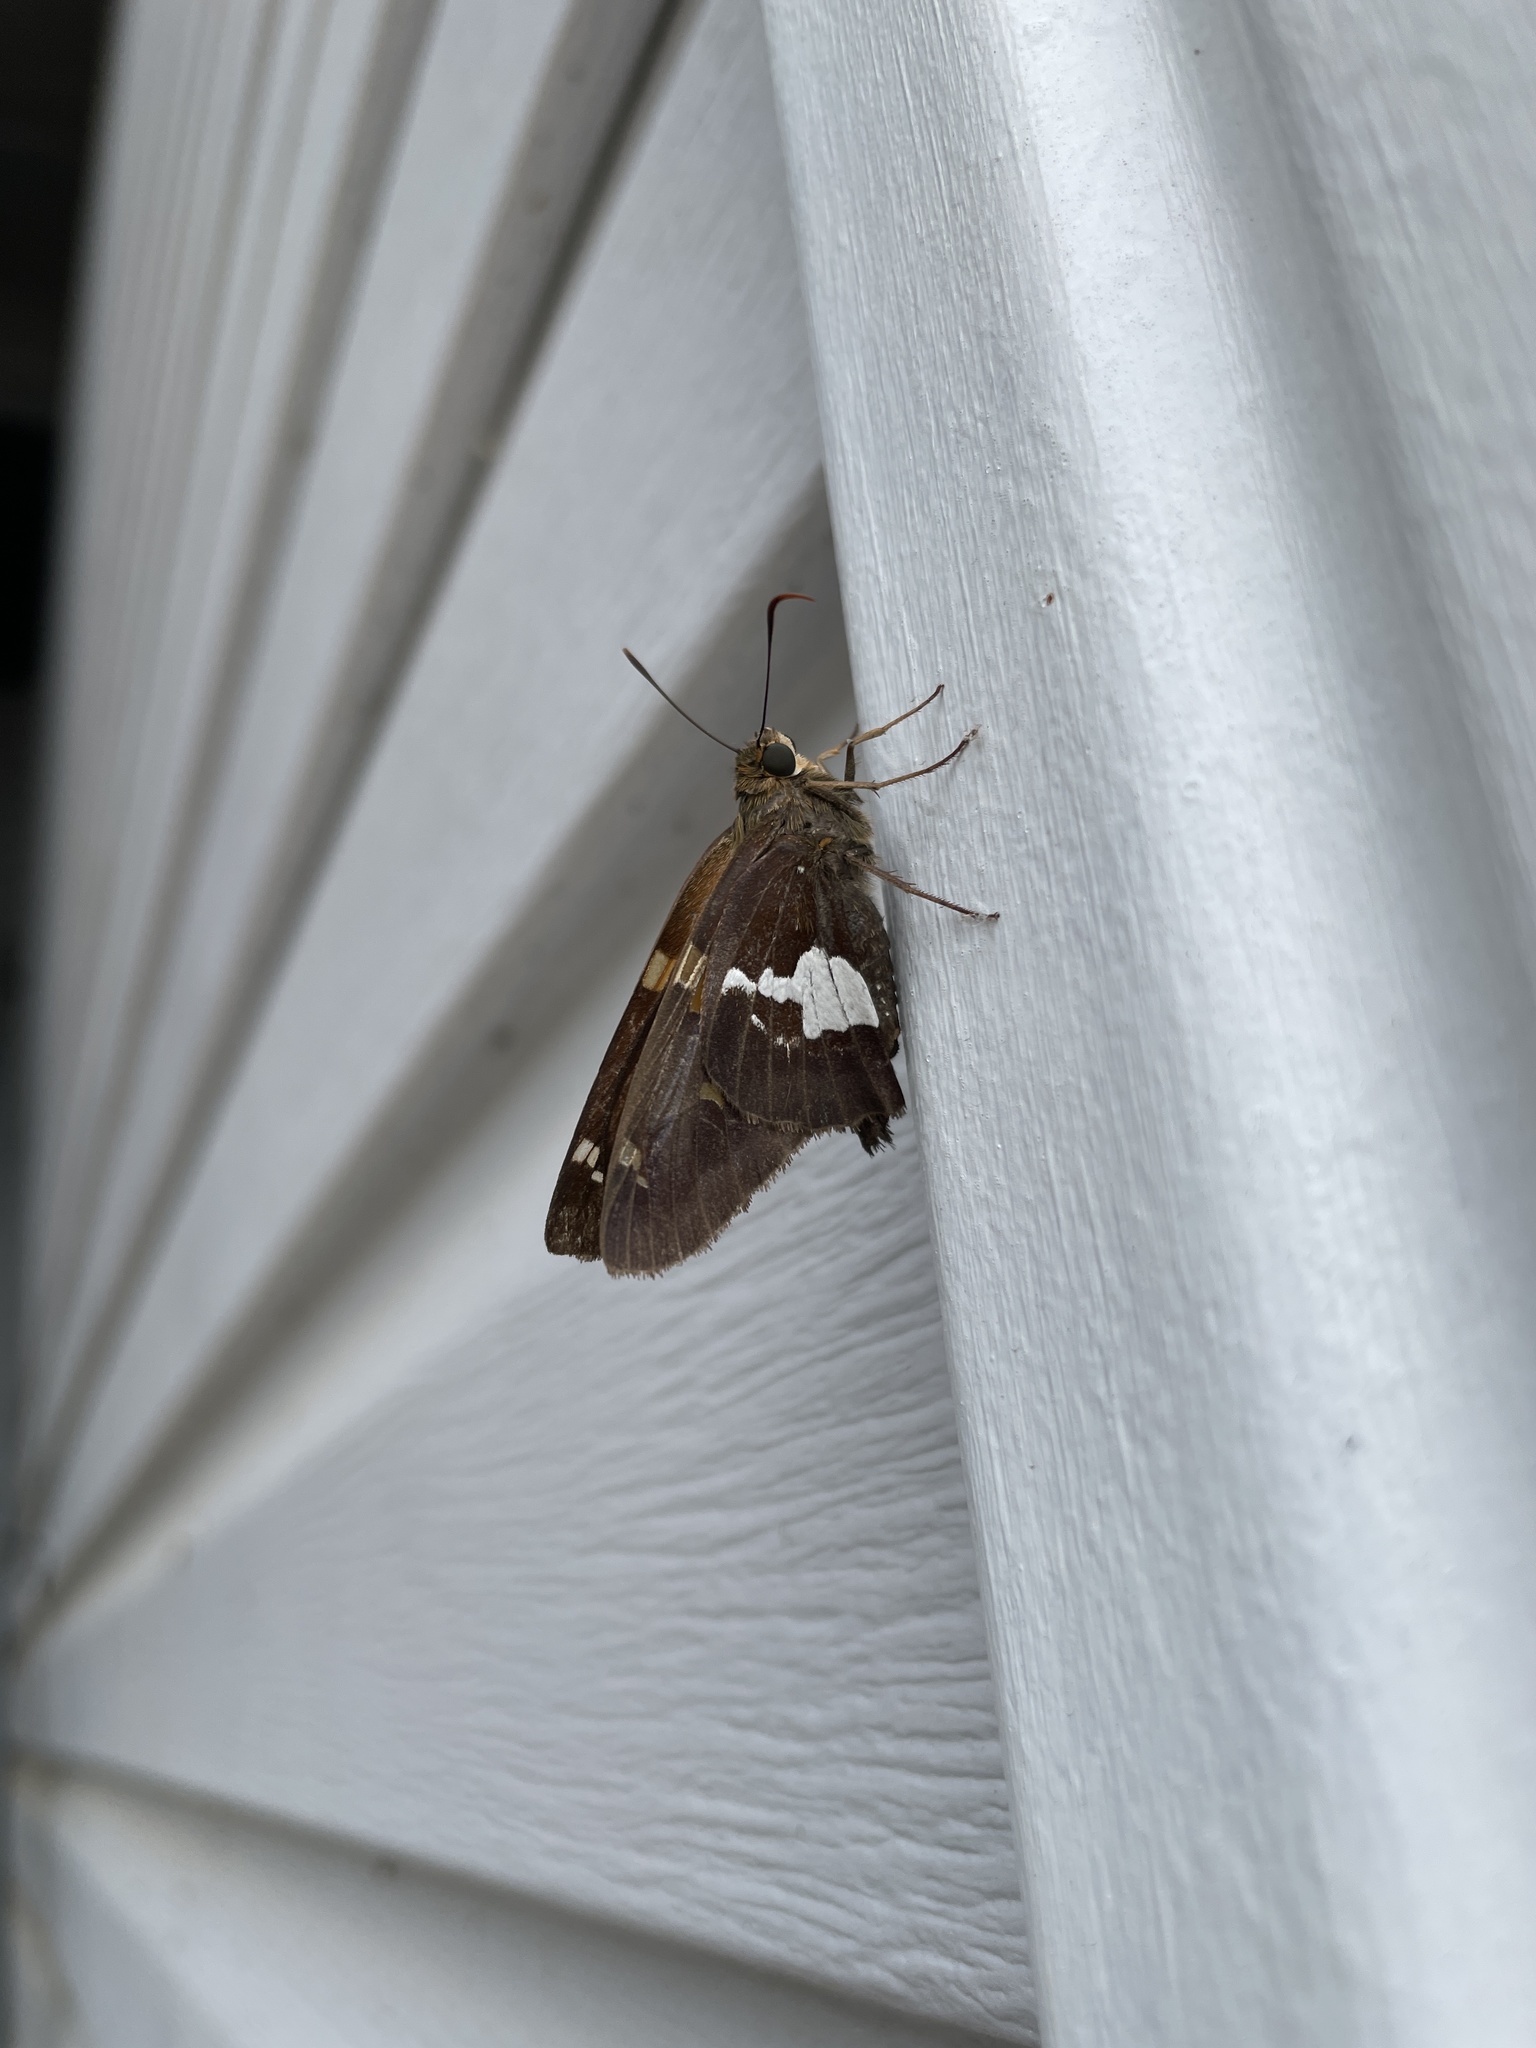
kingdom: Animalia
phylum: Arthropoda
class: Insecta
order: Lepidoptera
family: Hesperiidae
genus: Epargyreus
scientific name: Epargyreus clarus
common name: Silver-spotted skipper
